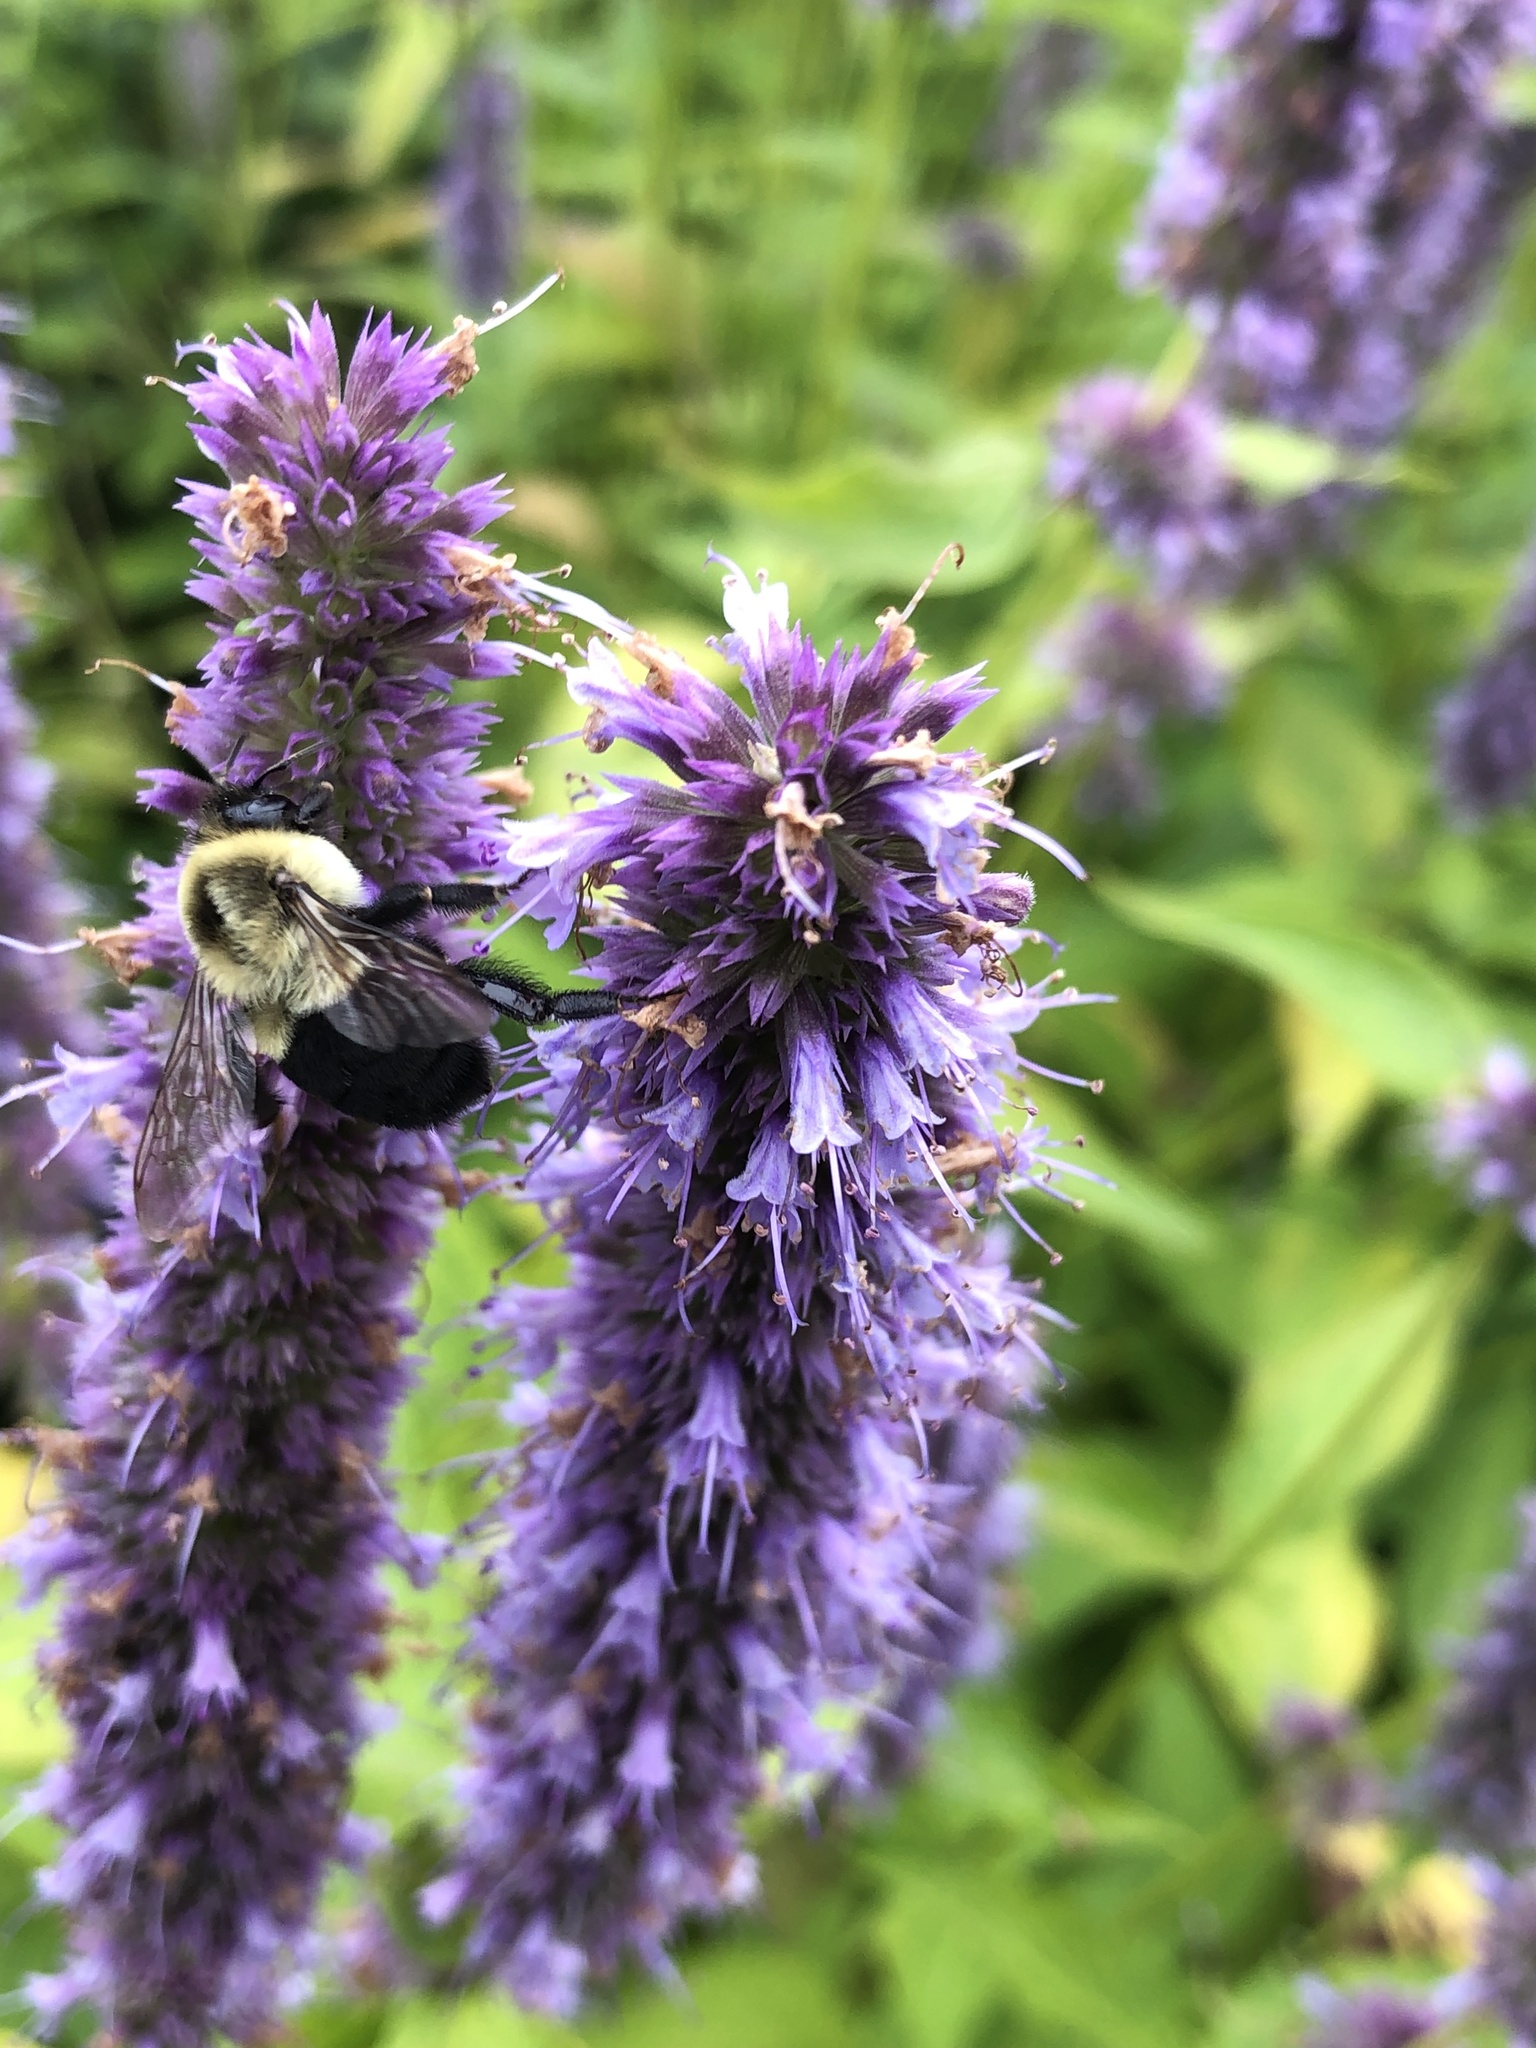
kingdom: Animalia
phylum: Arthropoda
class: Insecta
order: Hymenoptera
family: Apidae
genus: Bombus
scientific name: Bombus impatiens
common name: Common eastern bumble bee
